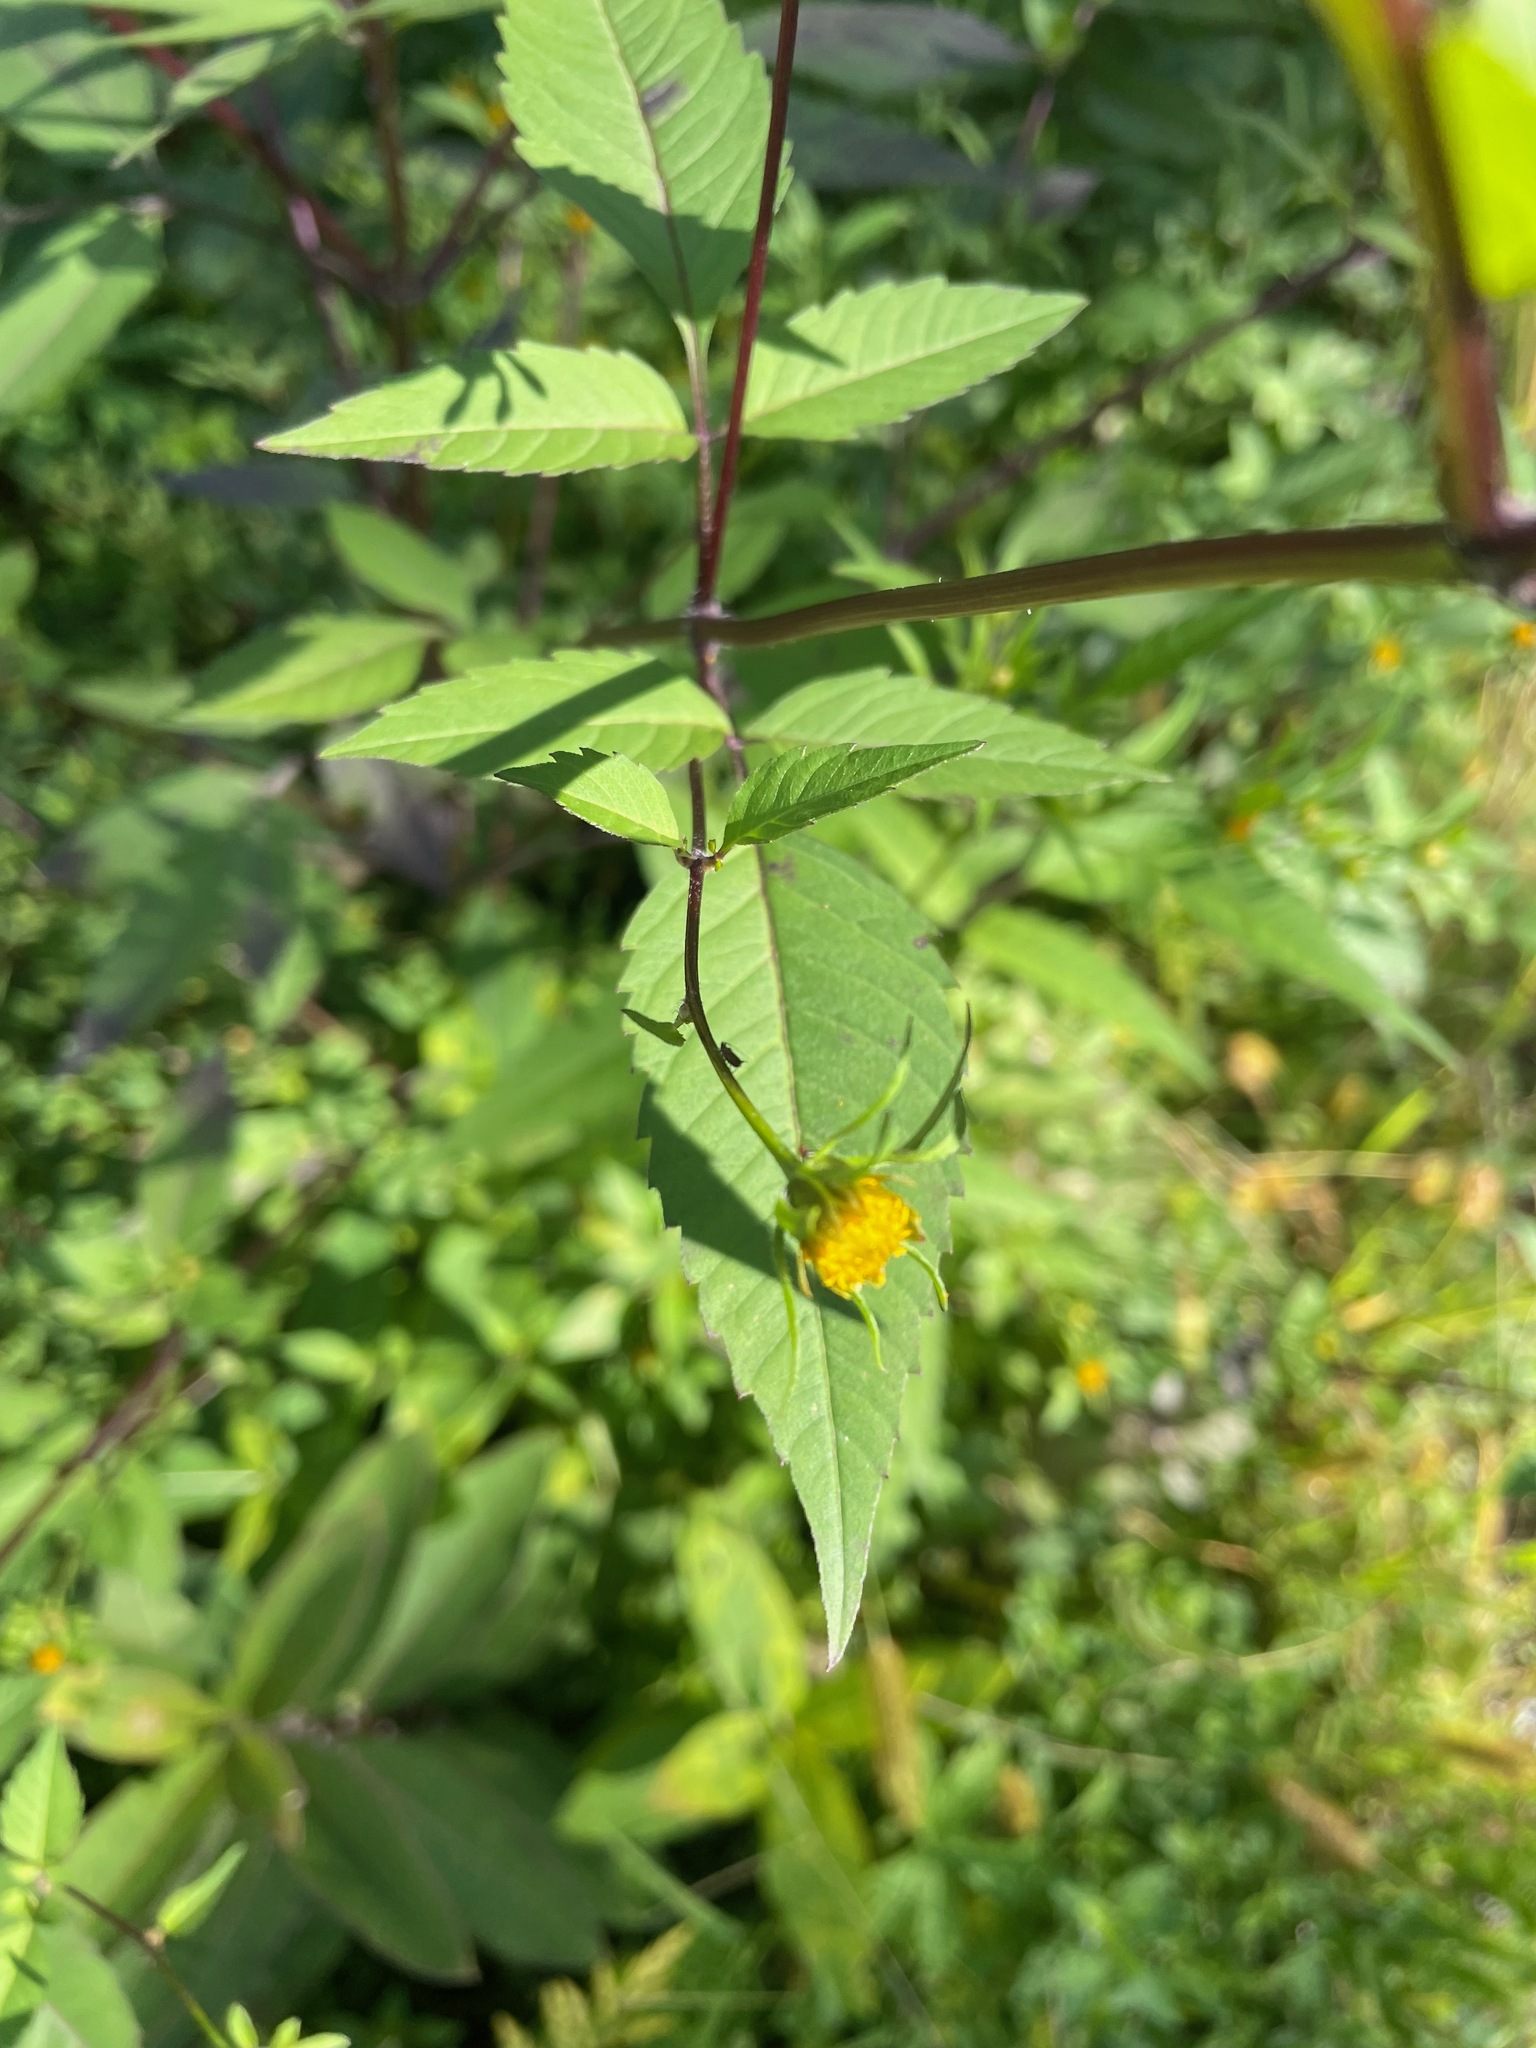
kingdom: Plantae
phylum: Tracheophyta
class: Magnoliopsida
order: Asterales
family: Asteraceae
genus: Bidens
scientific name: Bidens frondosa
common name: Beggarticks
